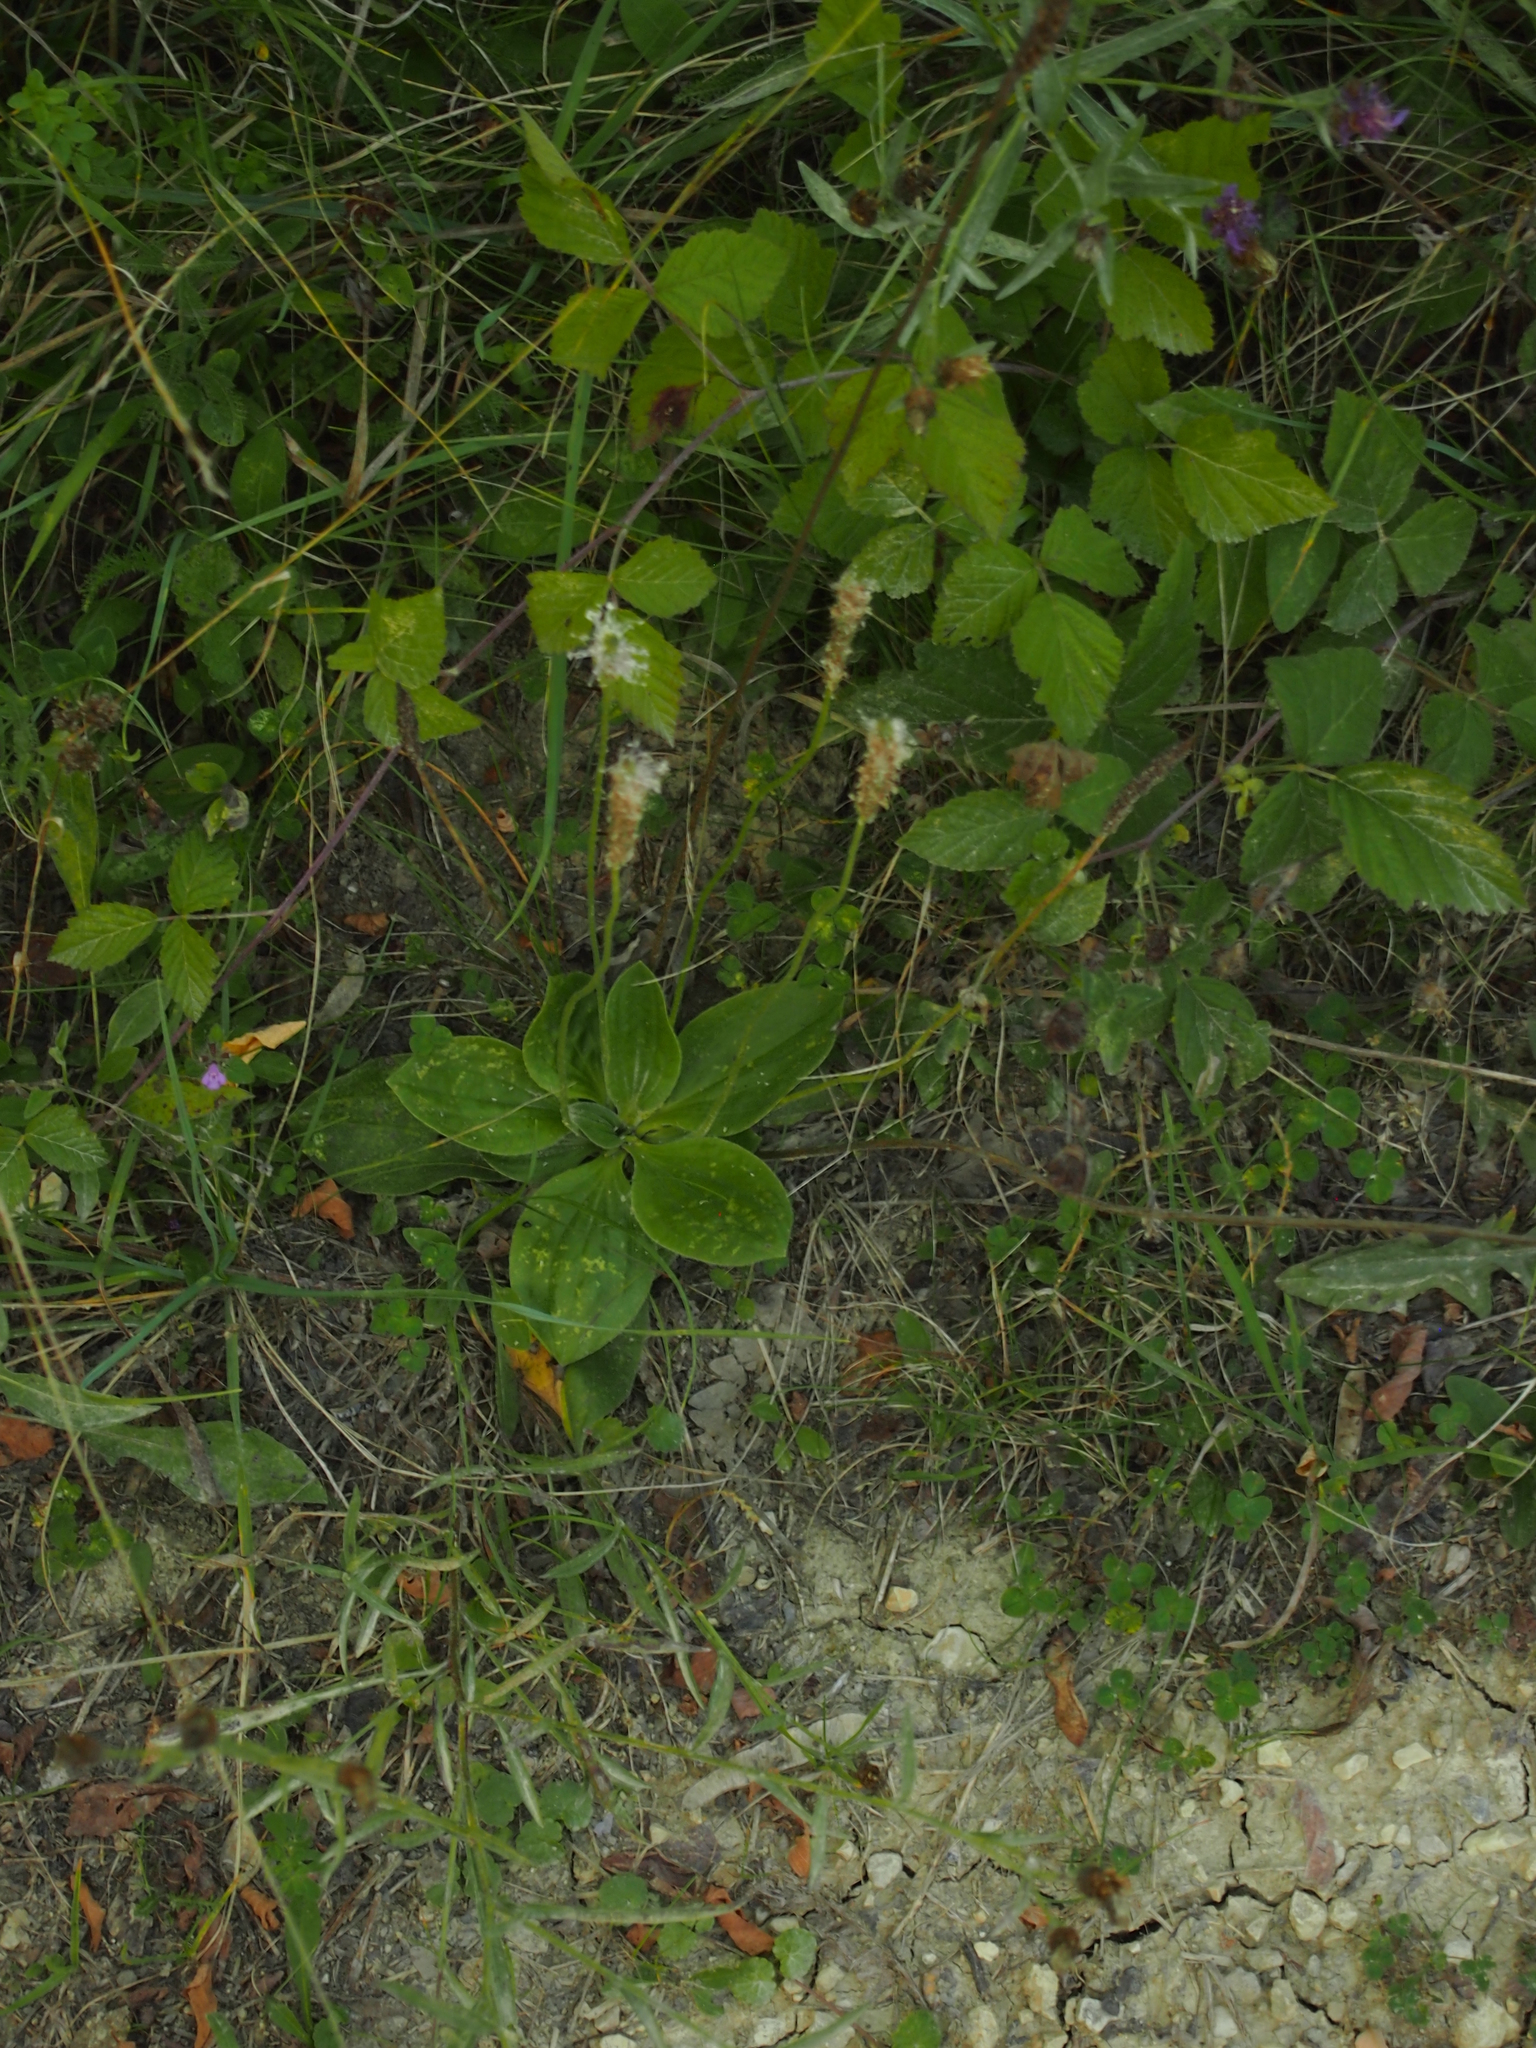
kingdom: Plantae
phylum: Tracheophyta
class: Magnoliopsida
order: Lamiales
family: Plantaginaceae
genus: Plantago
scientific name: Plantago media
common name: Hoary plantain
